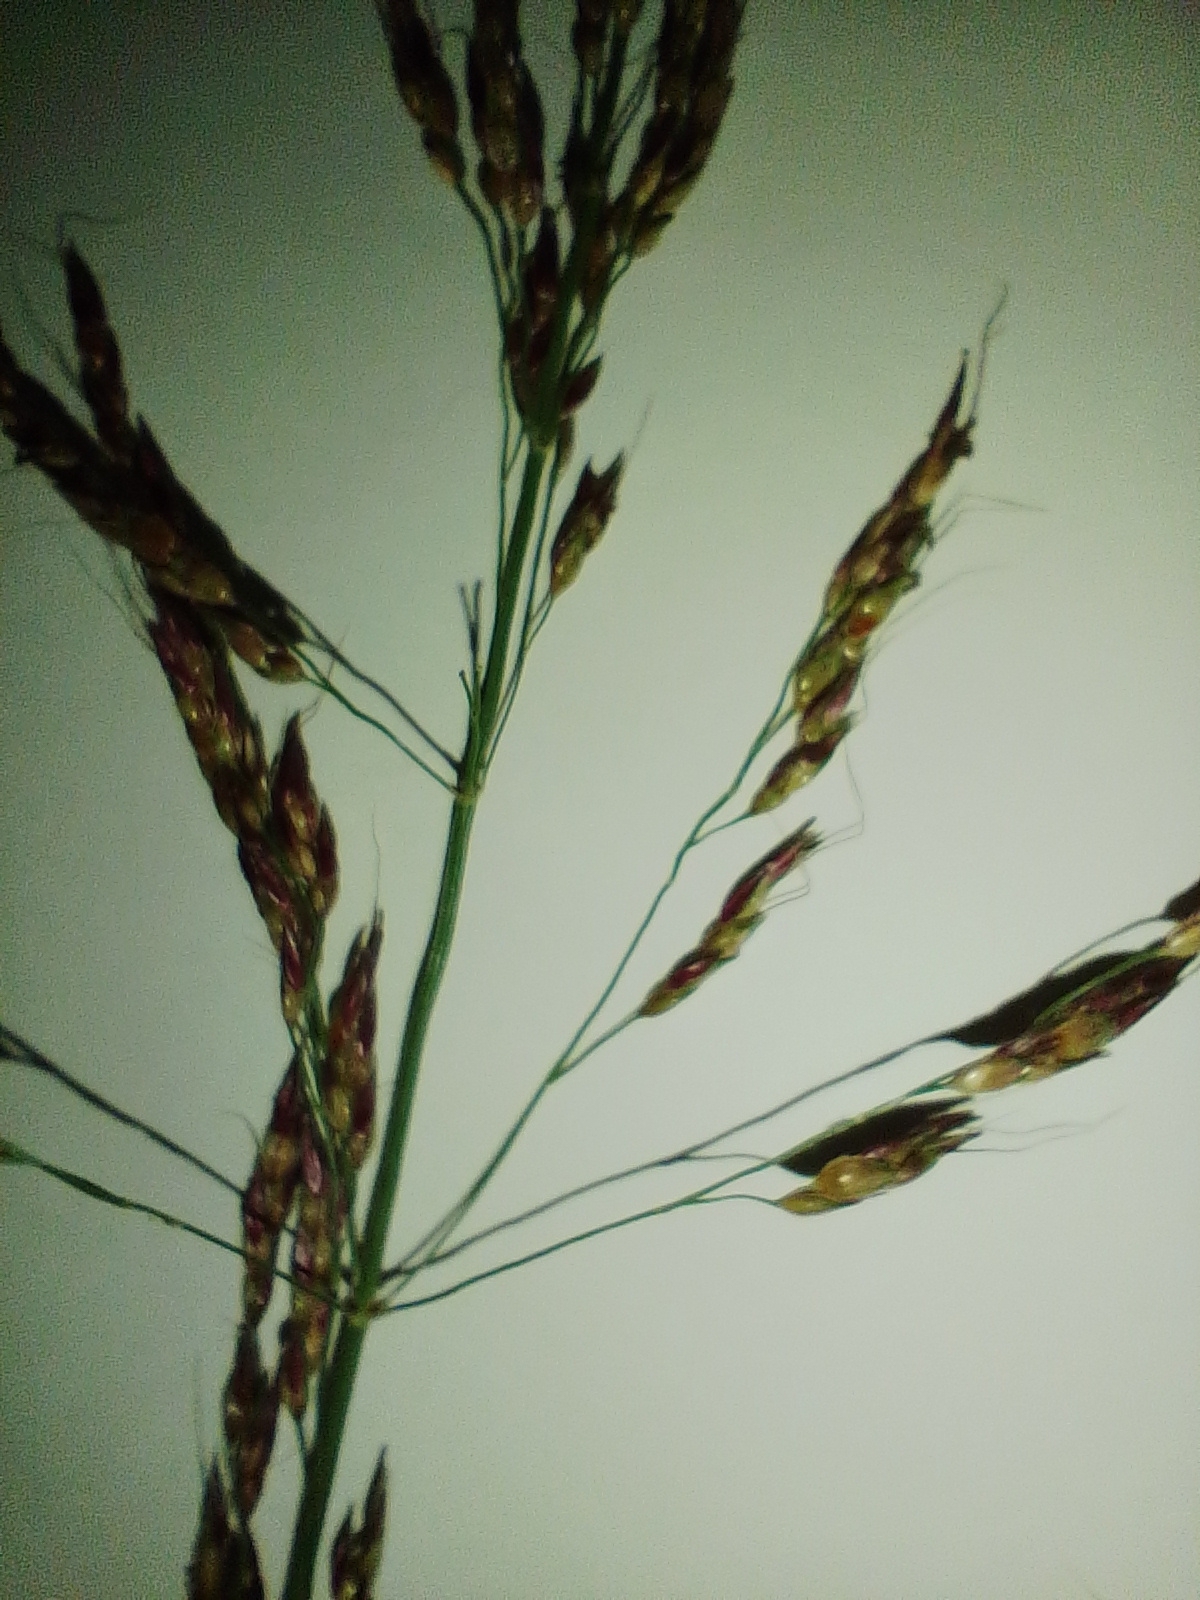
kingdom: Plantae
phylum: Tracheophyta
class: Liliopsida
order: Poales
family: Poaceae
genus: Sorghum
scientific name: Sorghum halepense
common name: Johnson-grass
